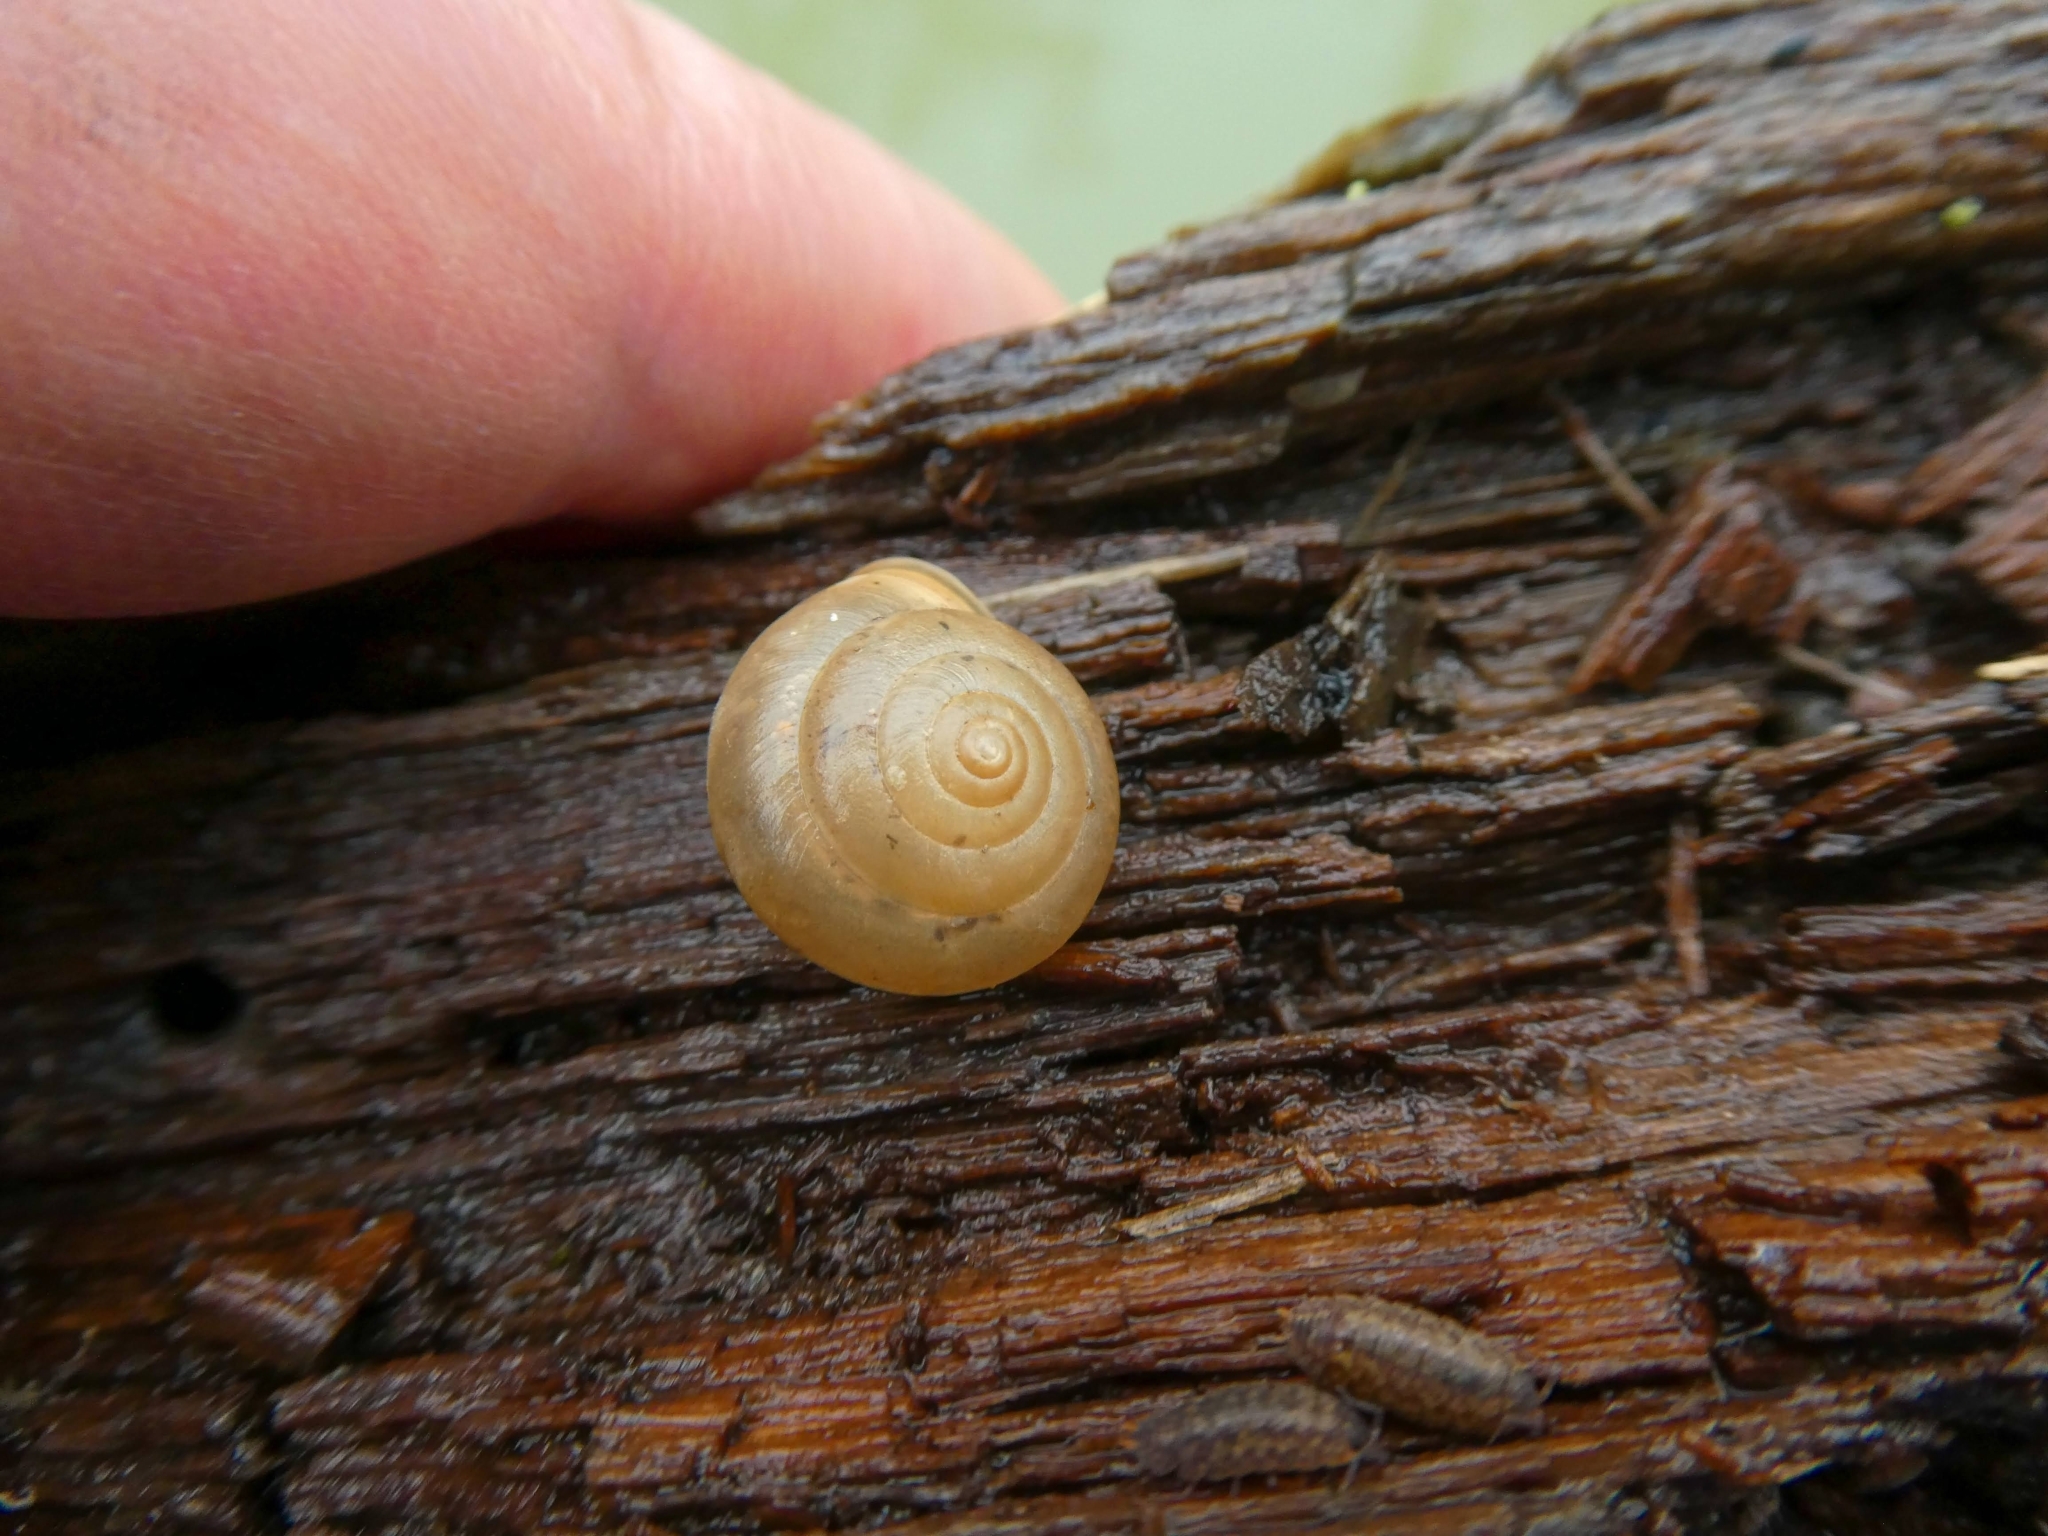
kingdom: Animalia
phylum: Mollusca
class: Gastropoda
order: Stylommatophora
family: Hygromiidae
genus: Monachoides
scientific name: Monachoides incarnatus
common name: Incarnate snail
